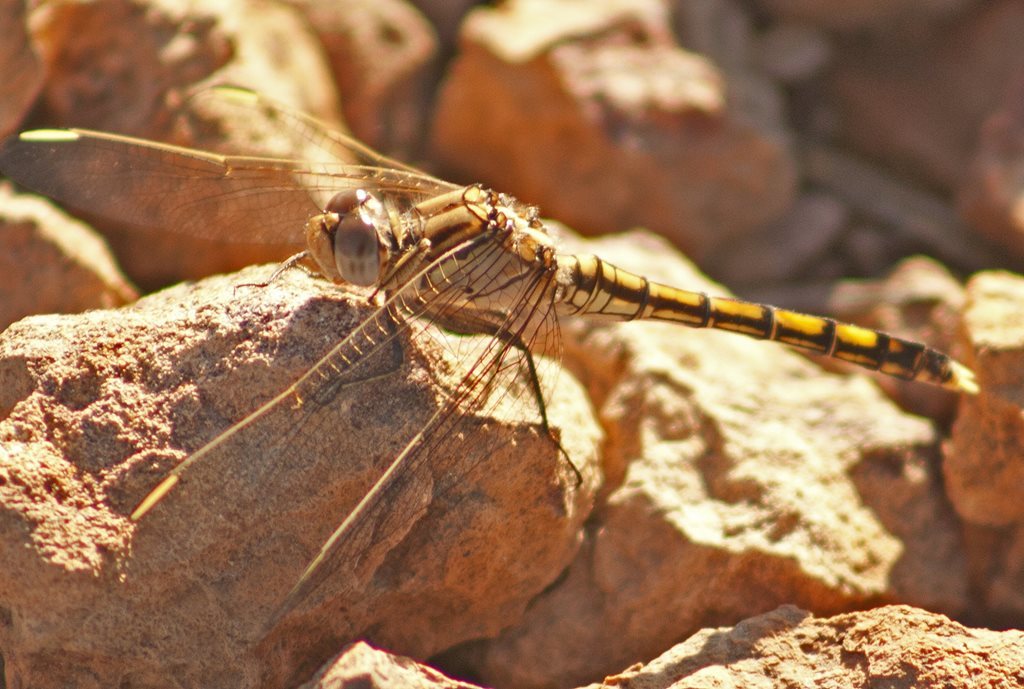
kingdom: Animalia
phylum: Arthropoda
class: Insecta
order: Odonata
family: Libellulidae
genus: Orthetrum
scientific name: Orthetrum caledonicum
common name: Blue skimmer
